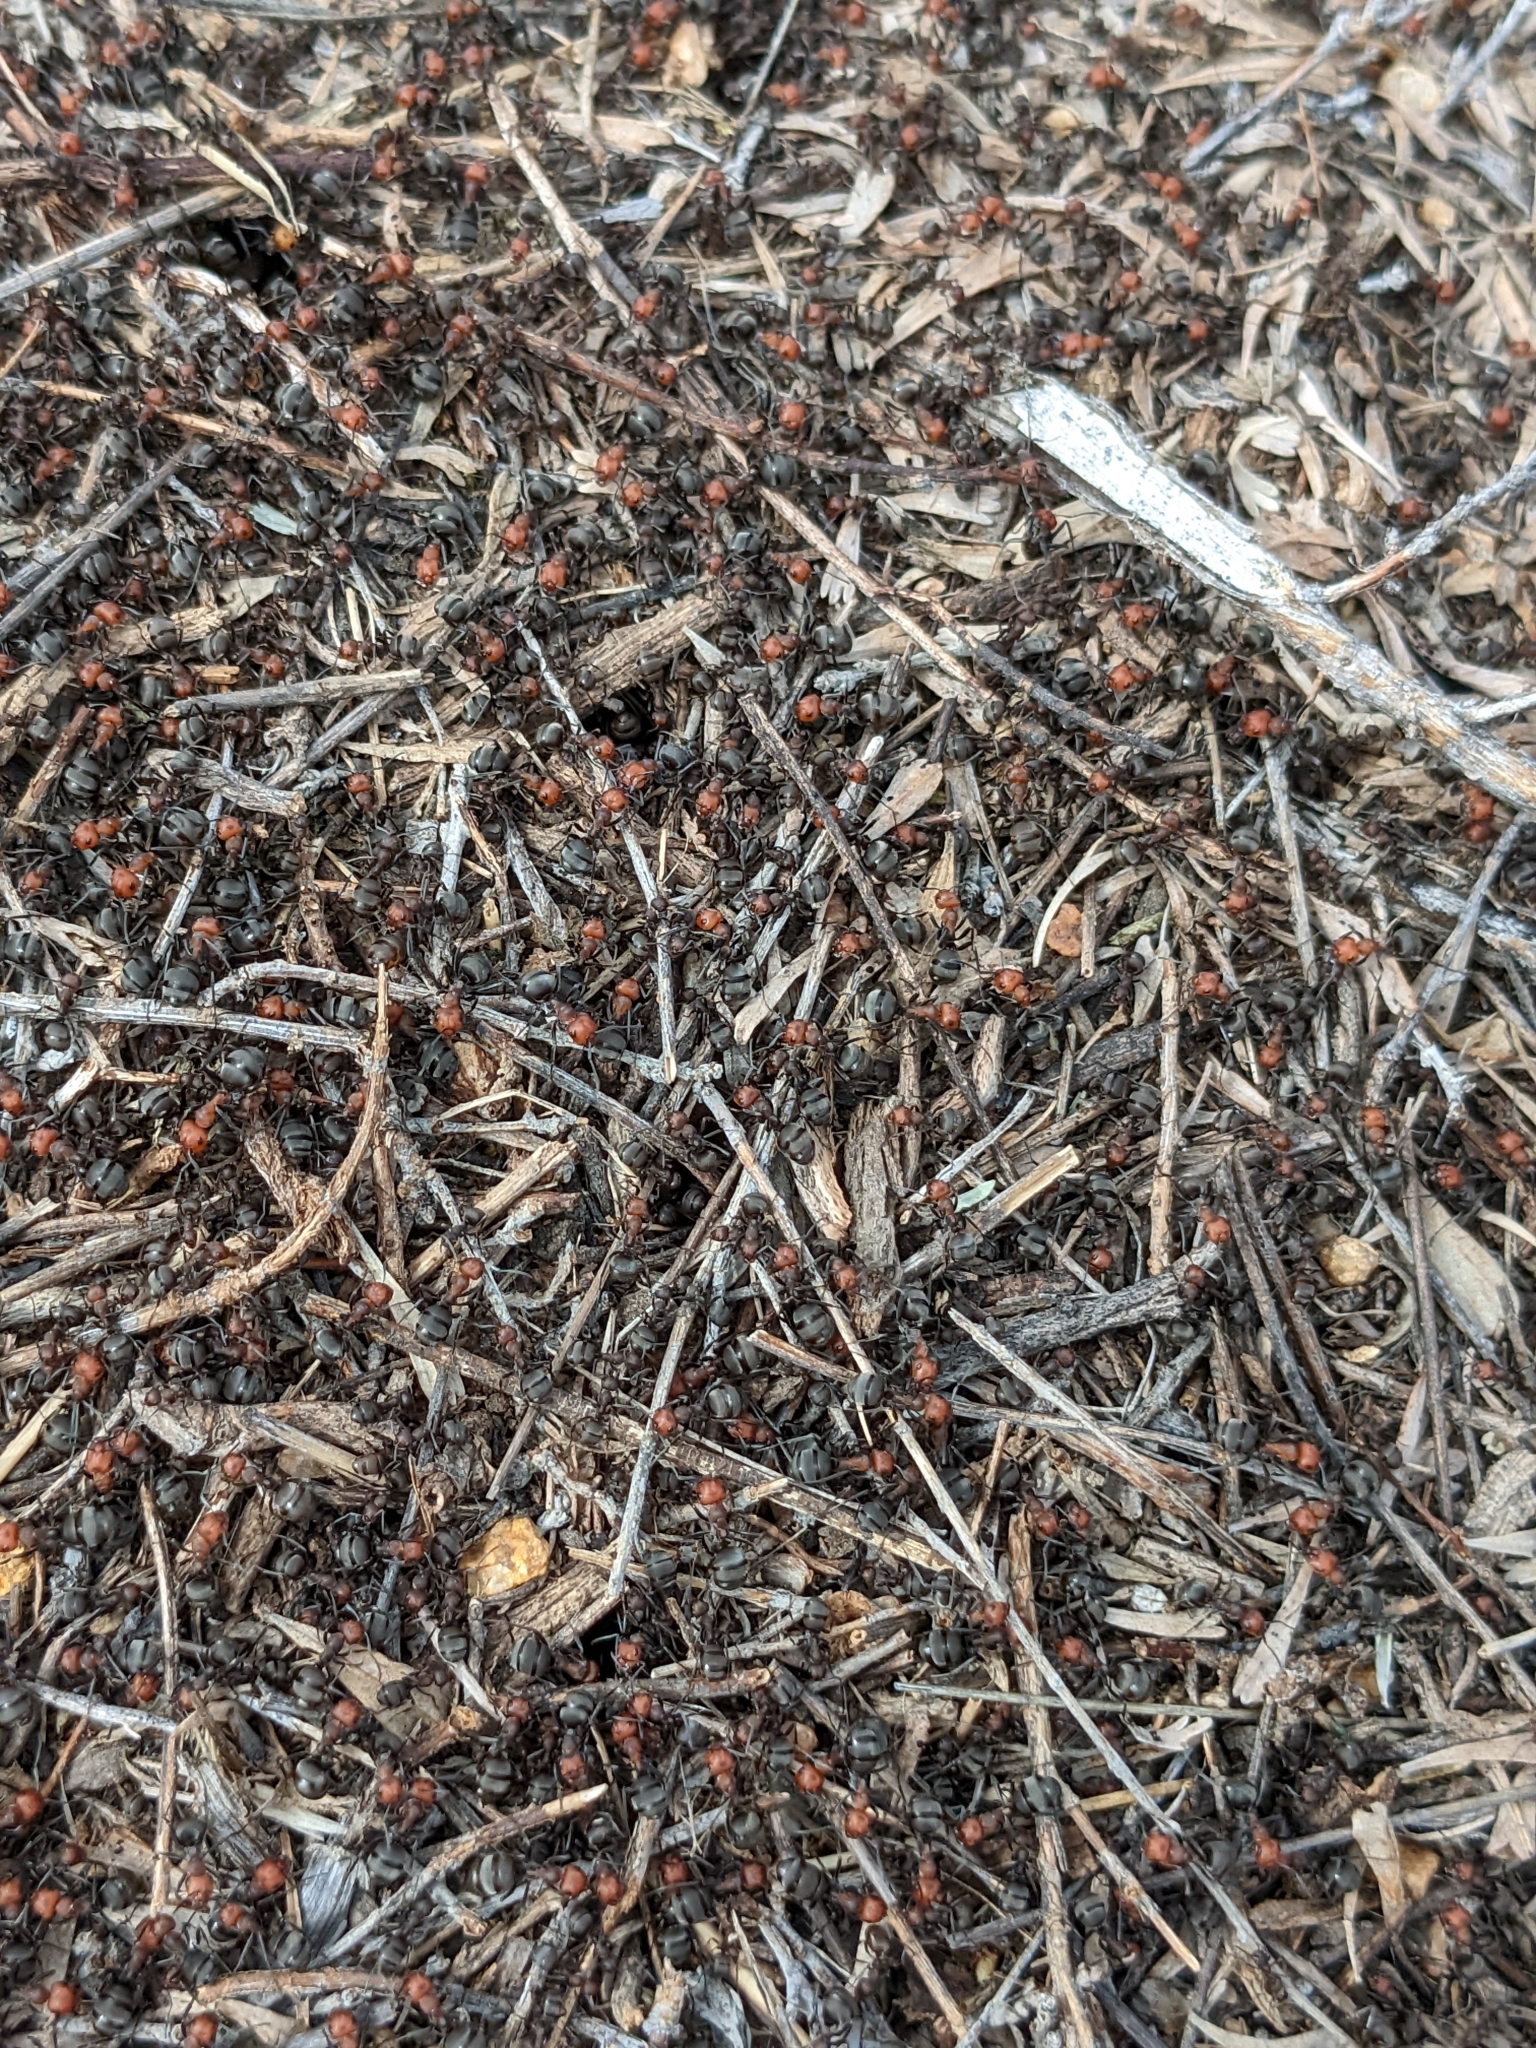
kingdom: Animalia
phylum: Arthropoda
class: Insecta
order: Hymenoptera
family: Formicidae
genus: Formica
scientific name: Formica obscuripes
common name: Western thatching ant
